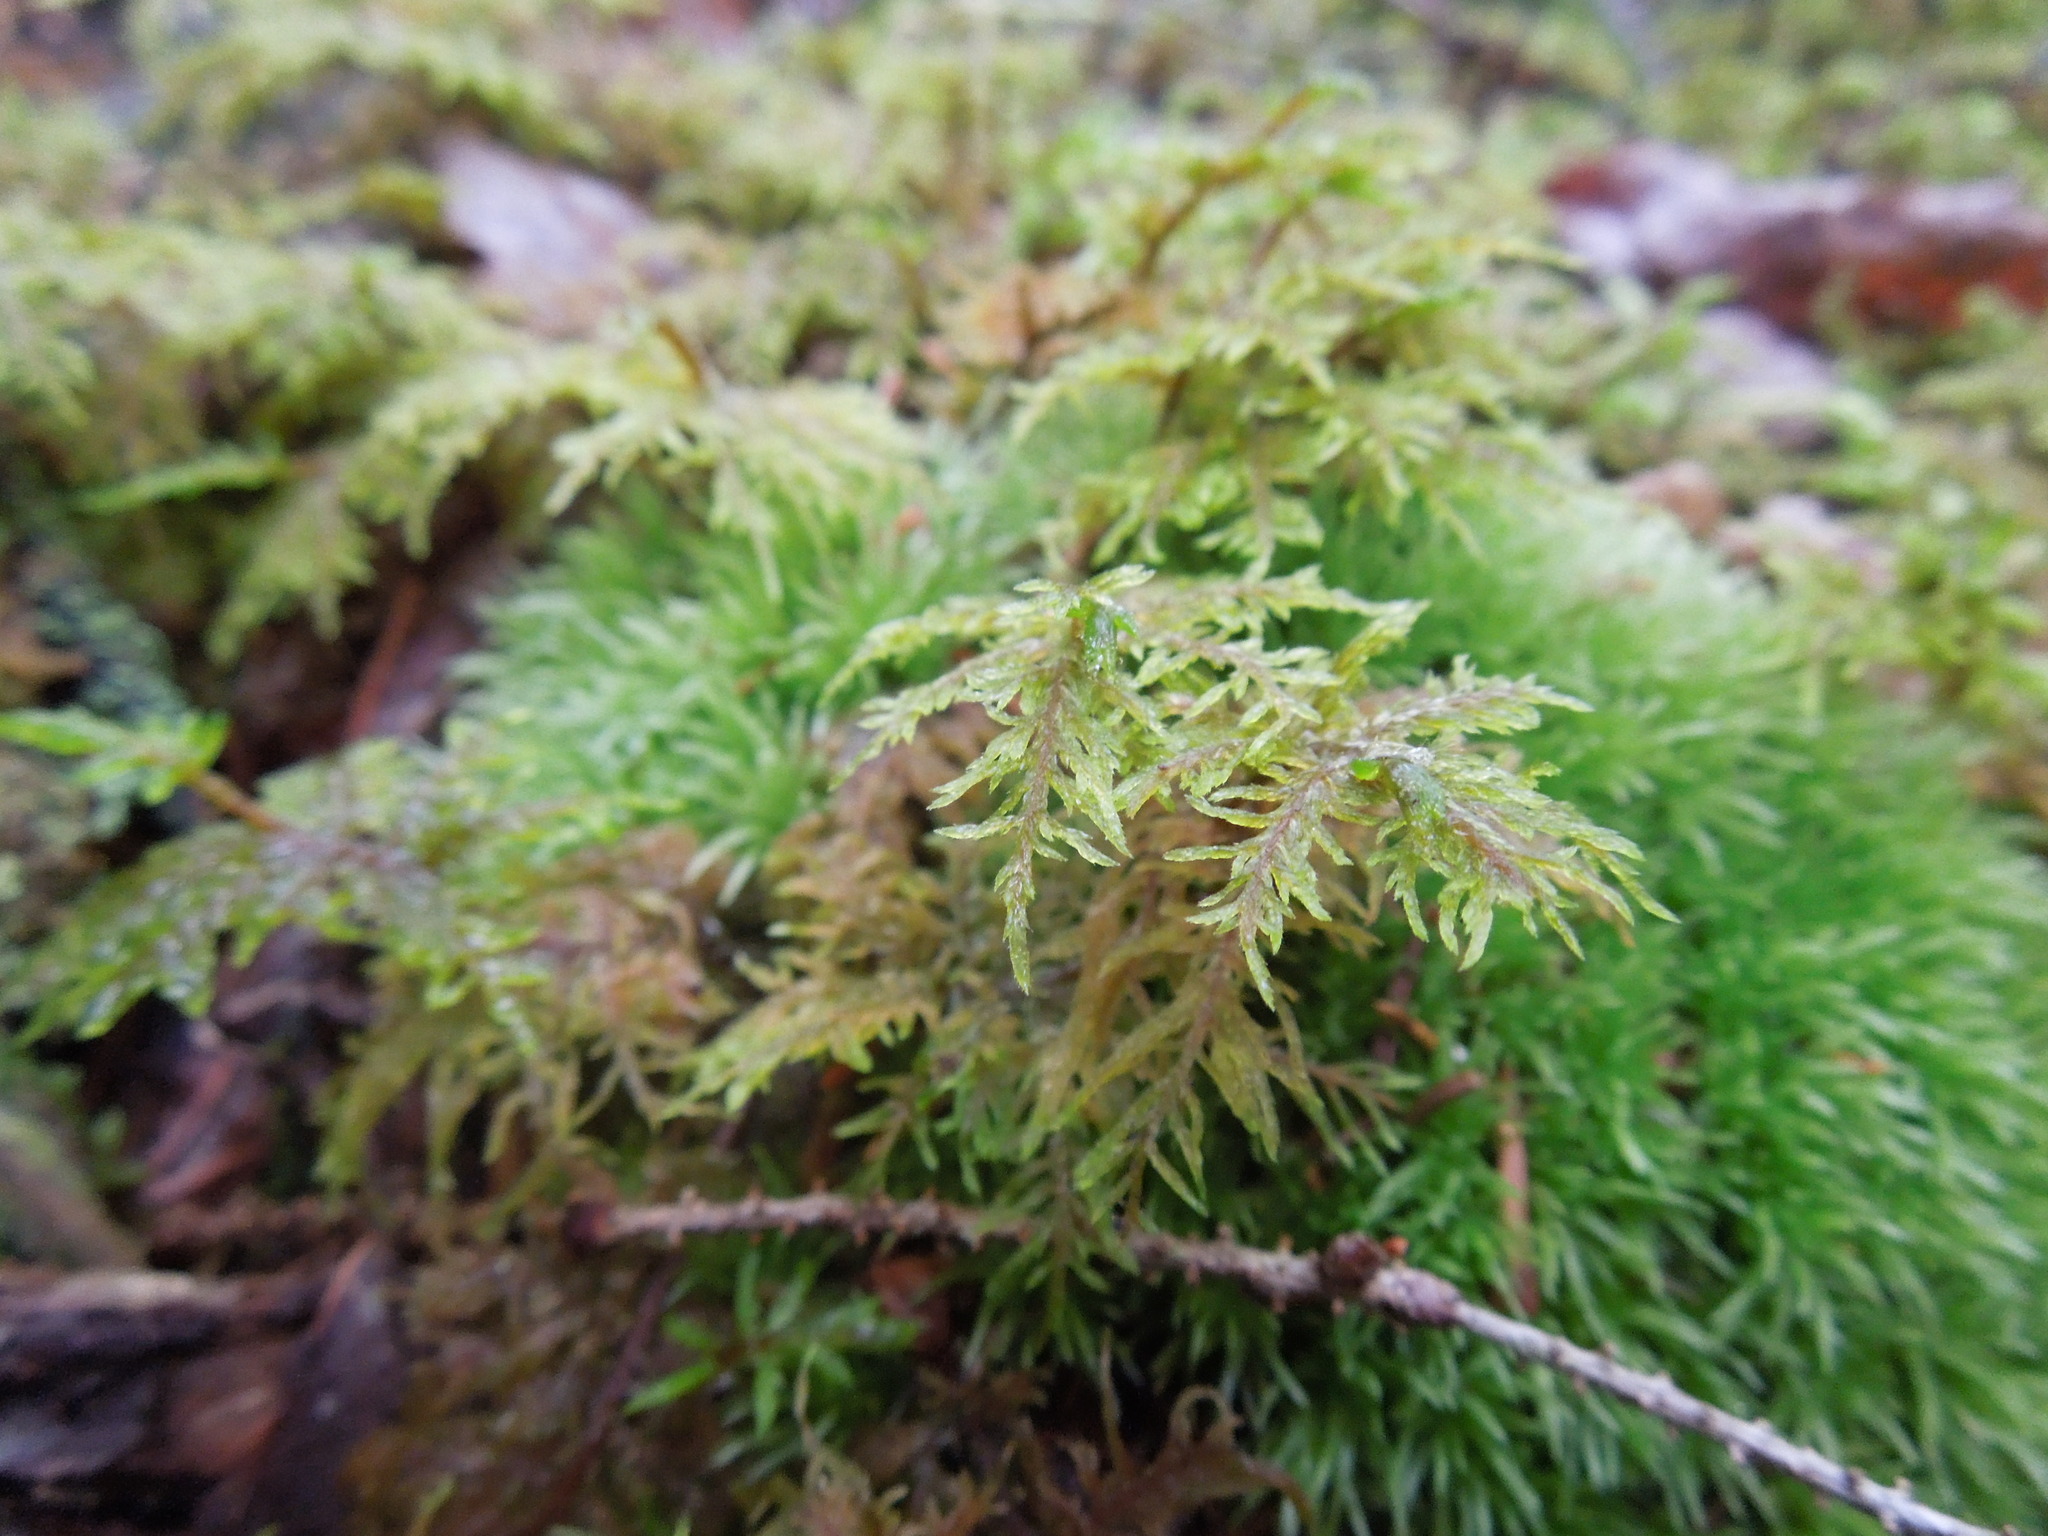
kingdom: Plantae
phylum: Bryophyta
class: Bryopsida
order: Hypnales
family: Hylocomiaceae
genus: Hylocomium
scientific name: Hylocomium splendens
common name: Stairstep moss
